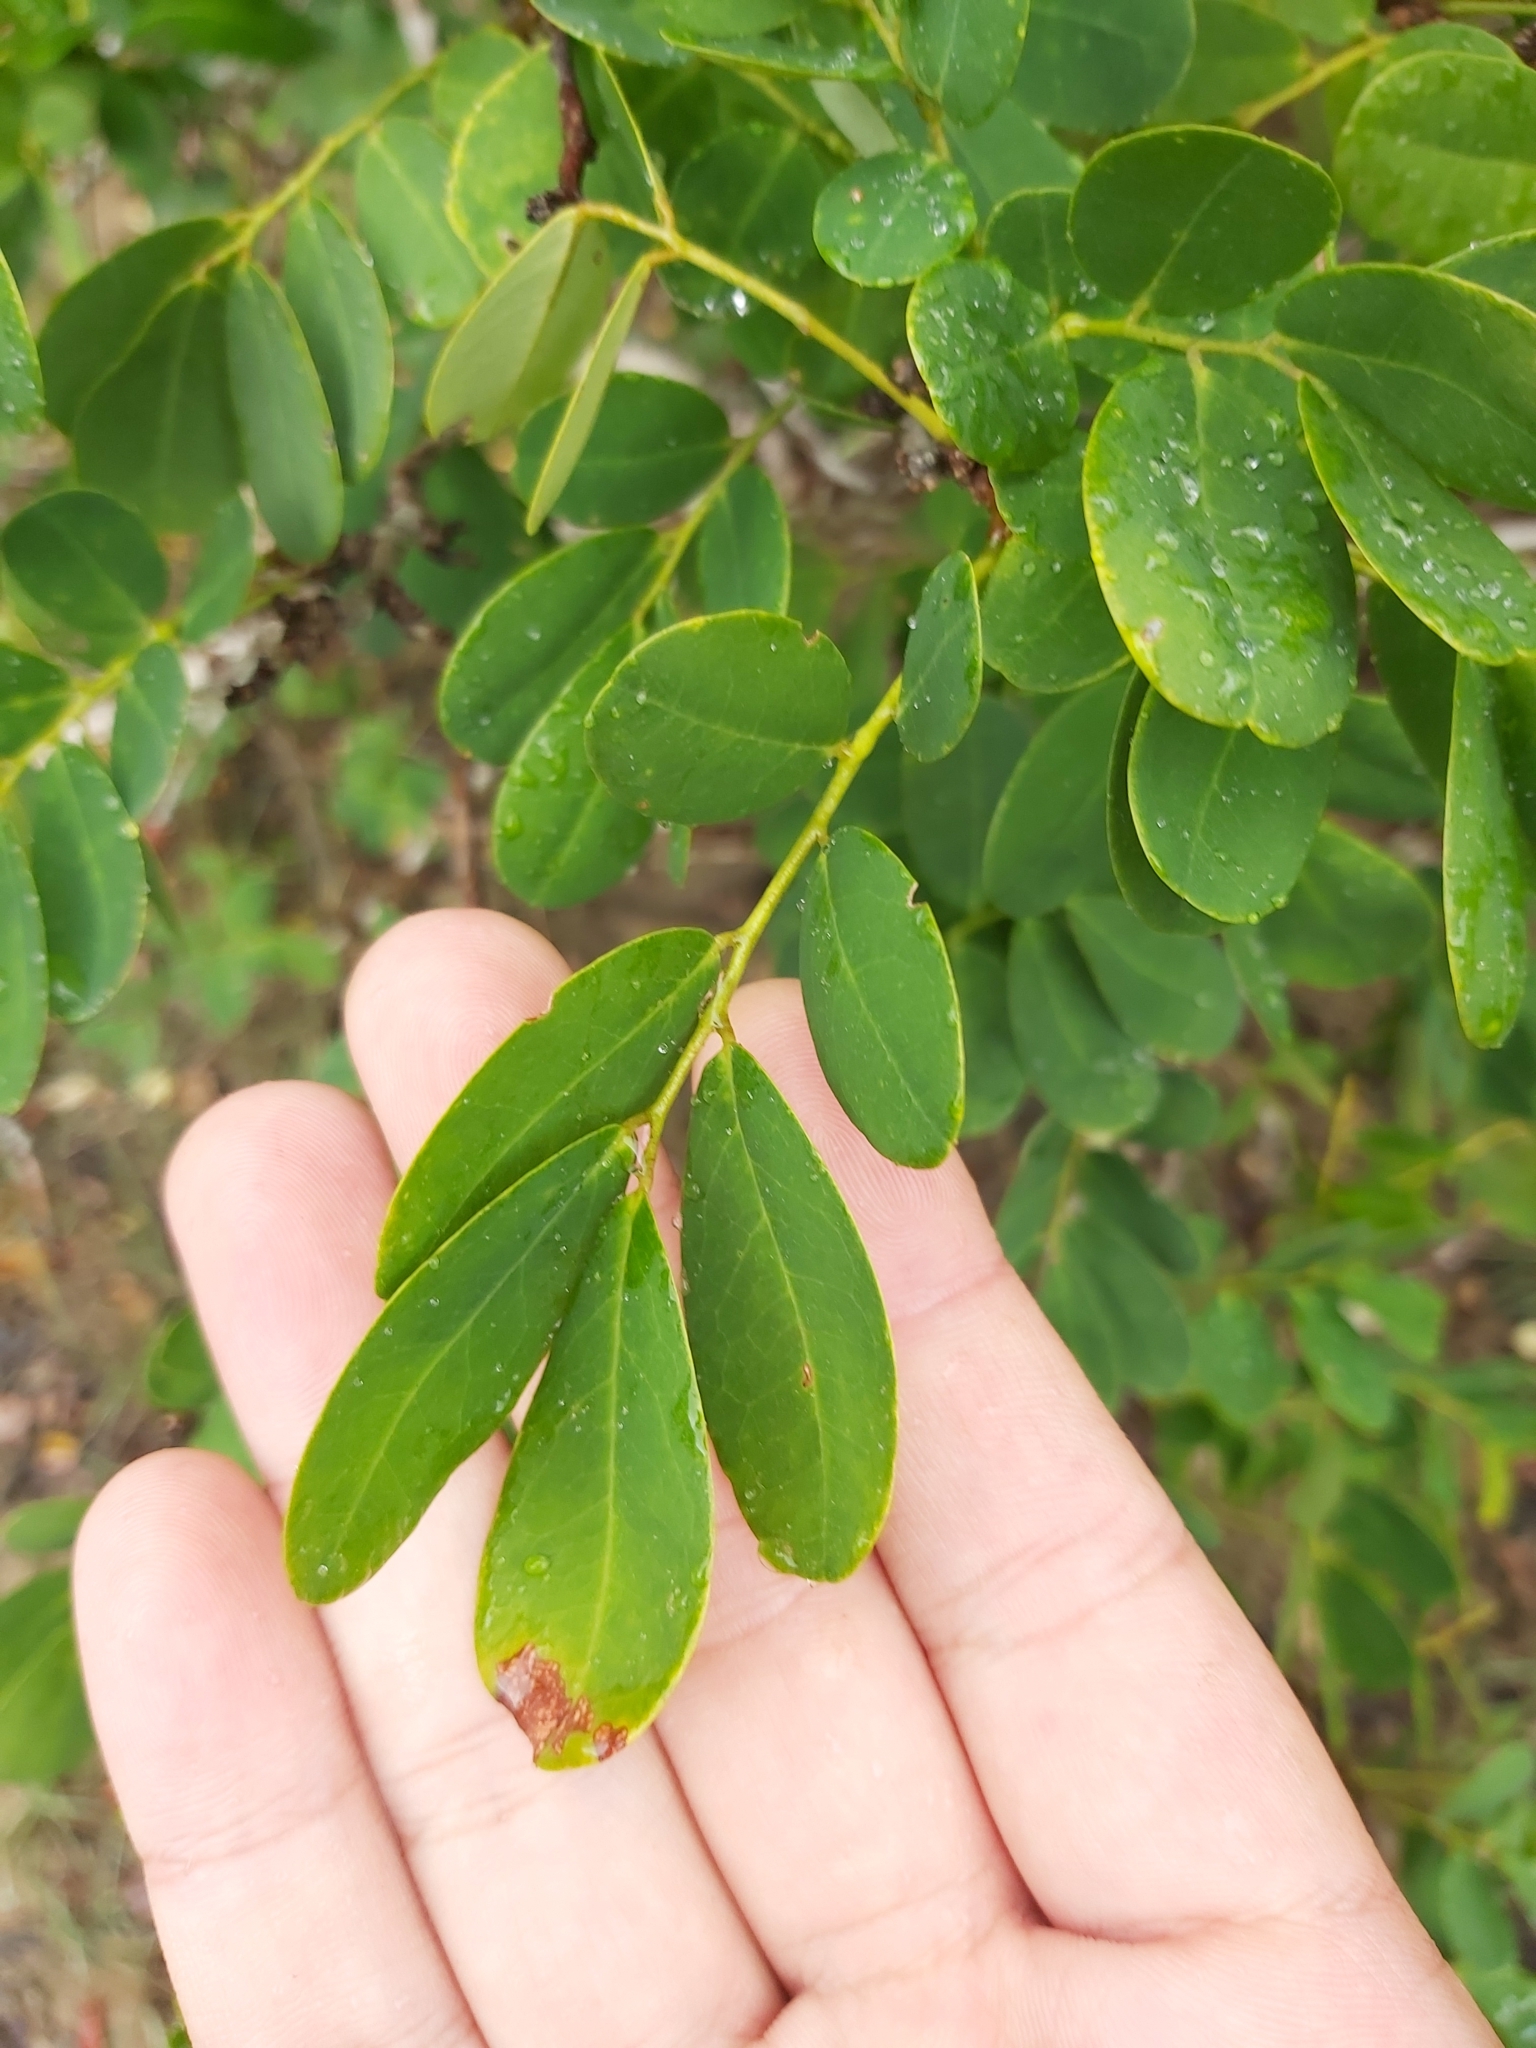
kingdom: Plantae
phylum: Tracheophyta
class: Magnoliopsida
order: Fabales
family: Fabaceae
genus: Dalbergia
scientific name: Dalbergia candenatensis
